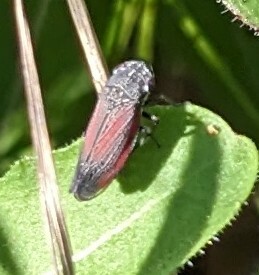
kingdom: Animalia
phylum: Arthropoda
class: Insecta
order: Hemiptera
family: Cicadellidae
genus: Cuerna
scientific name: Cuerna striata
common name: Striped leafhopper
